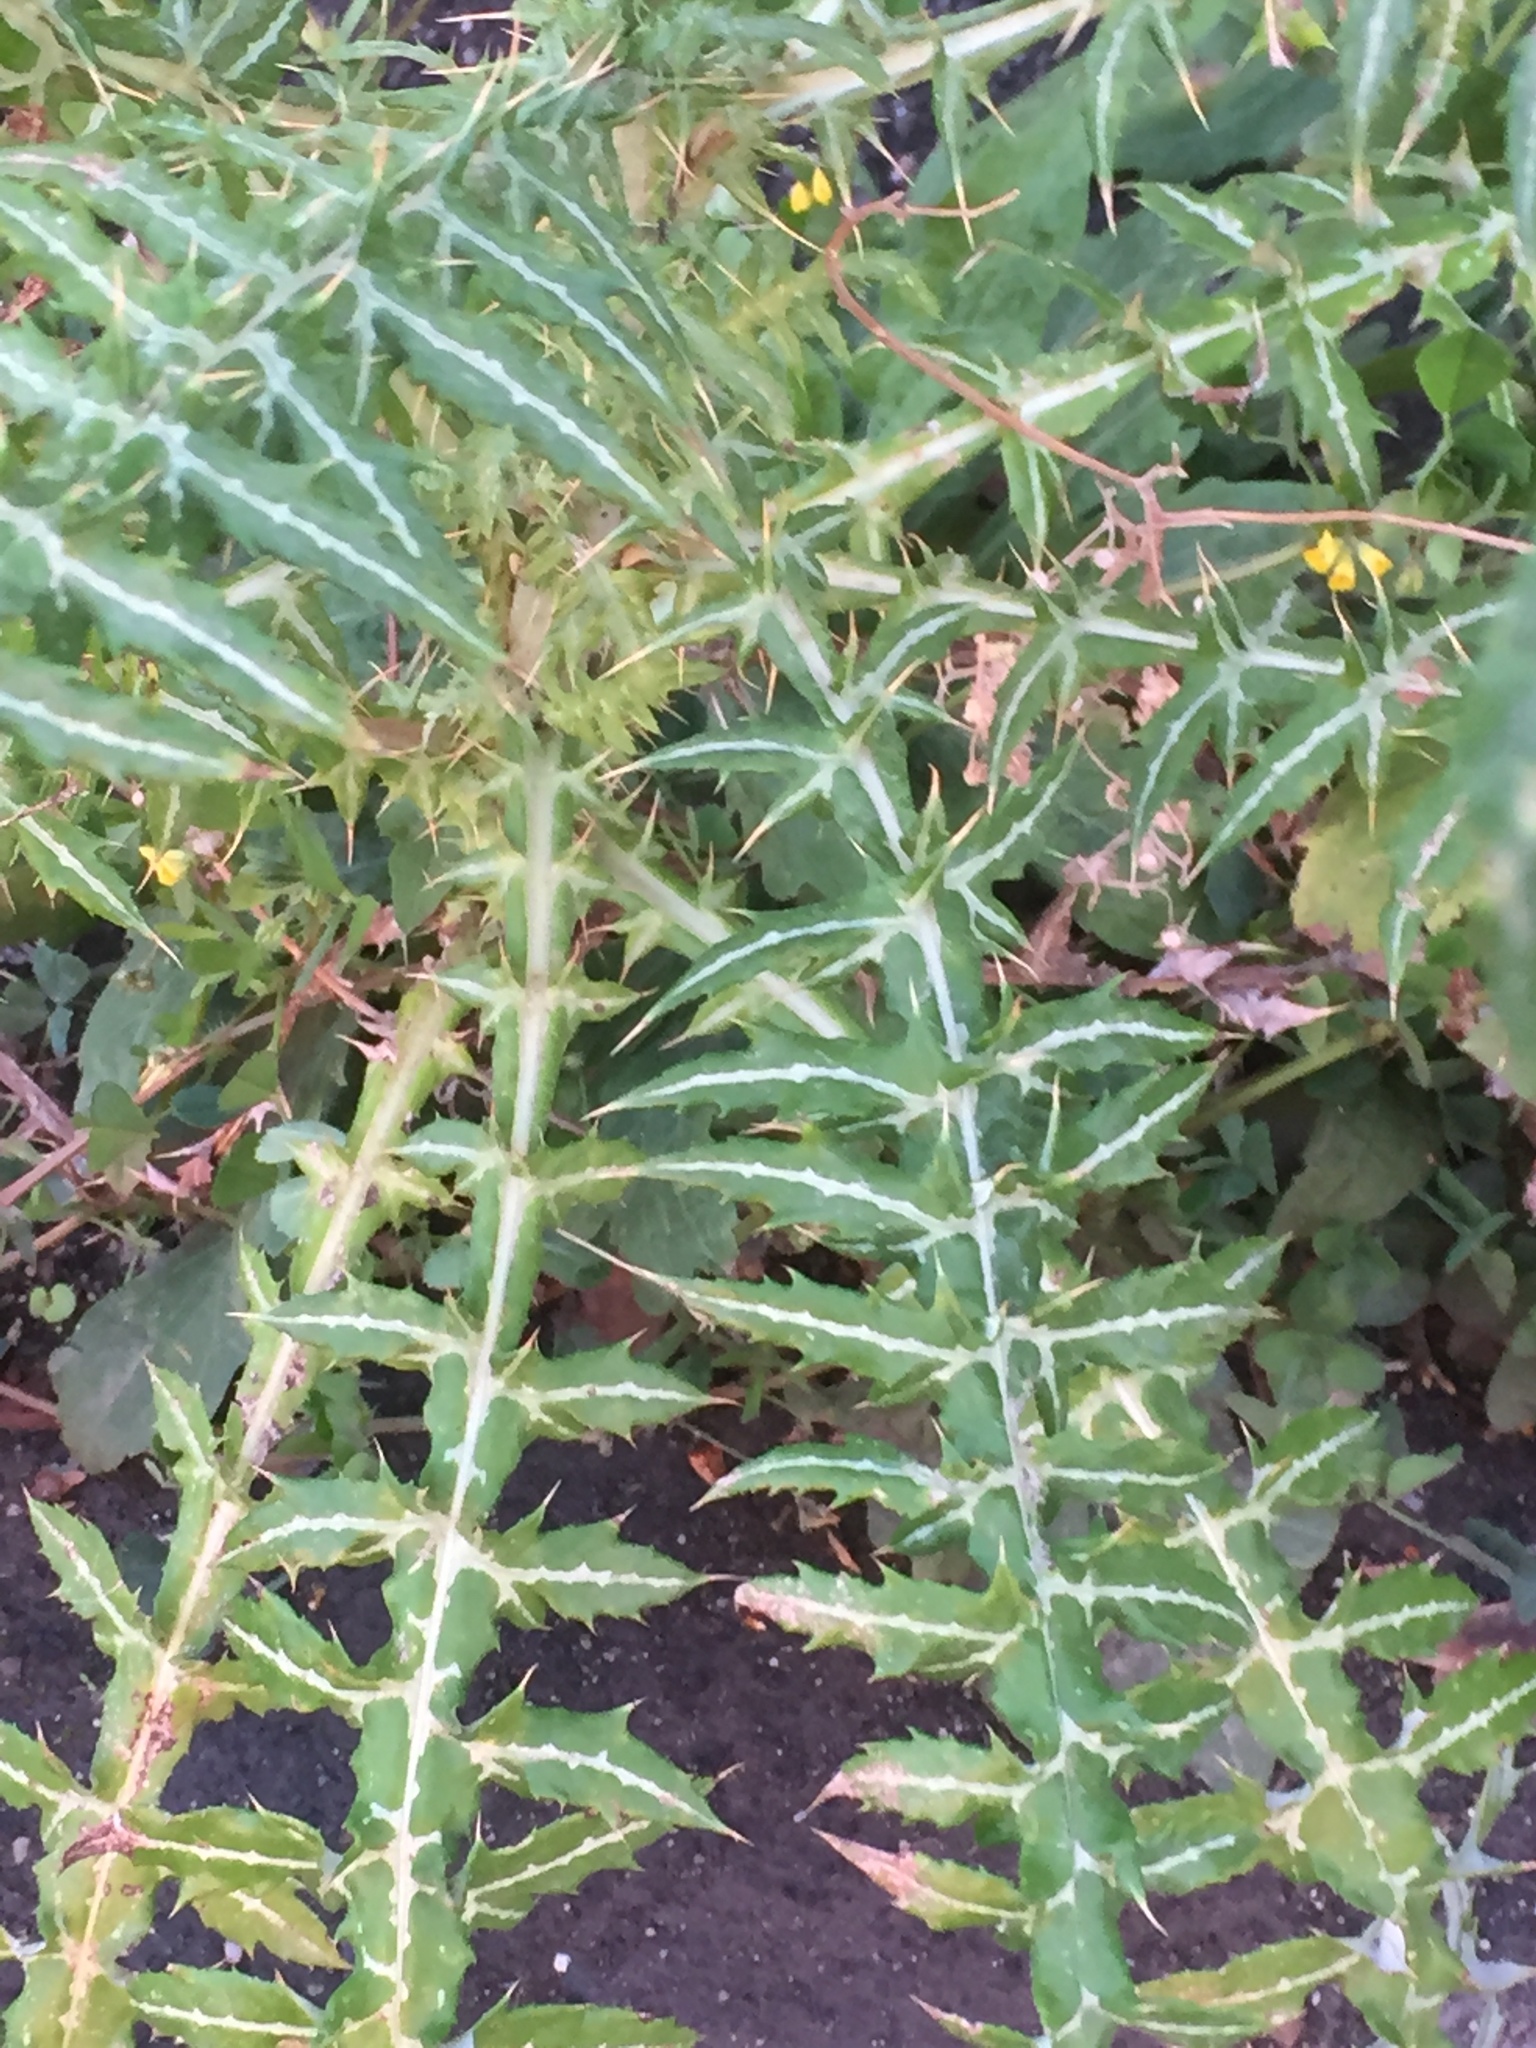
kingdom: Plantae
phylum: Tracheophyta
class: Magnoliopsida
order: Asterales
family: Asteraceae
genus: Galactites
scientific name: Galactites tomentosa
